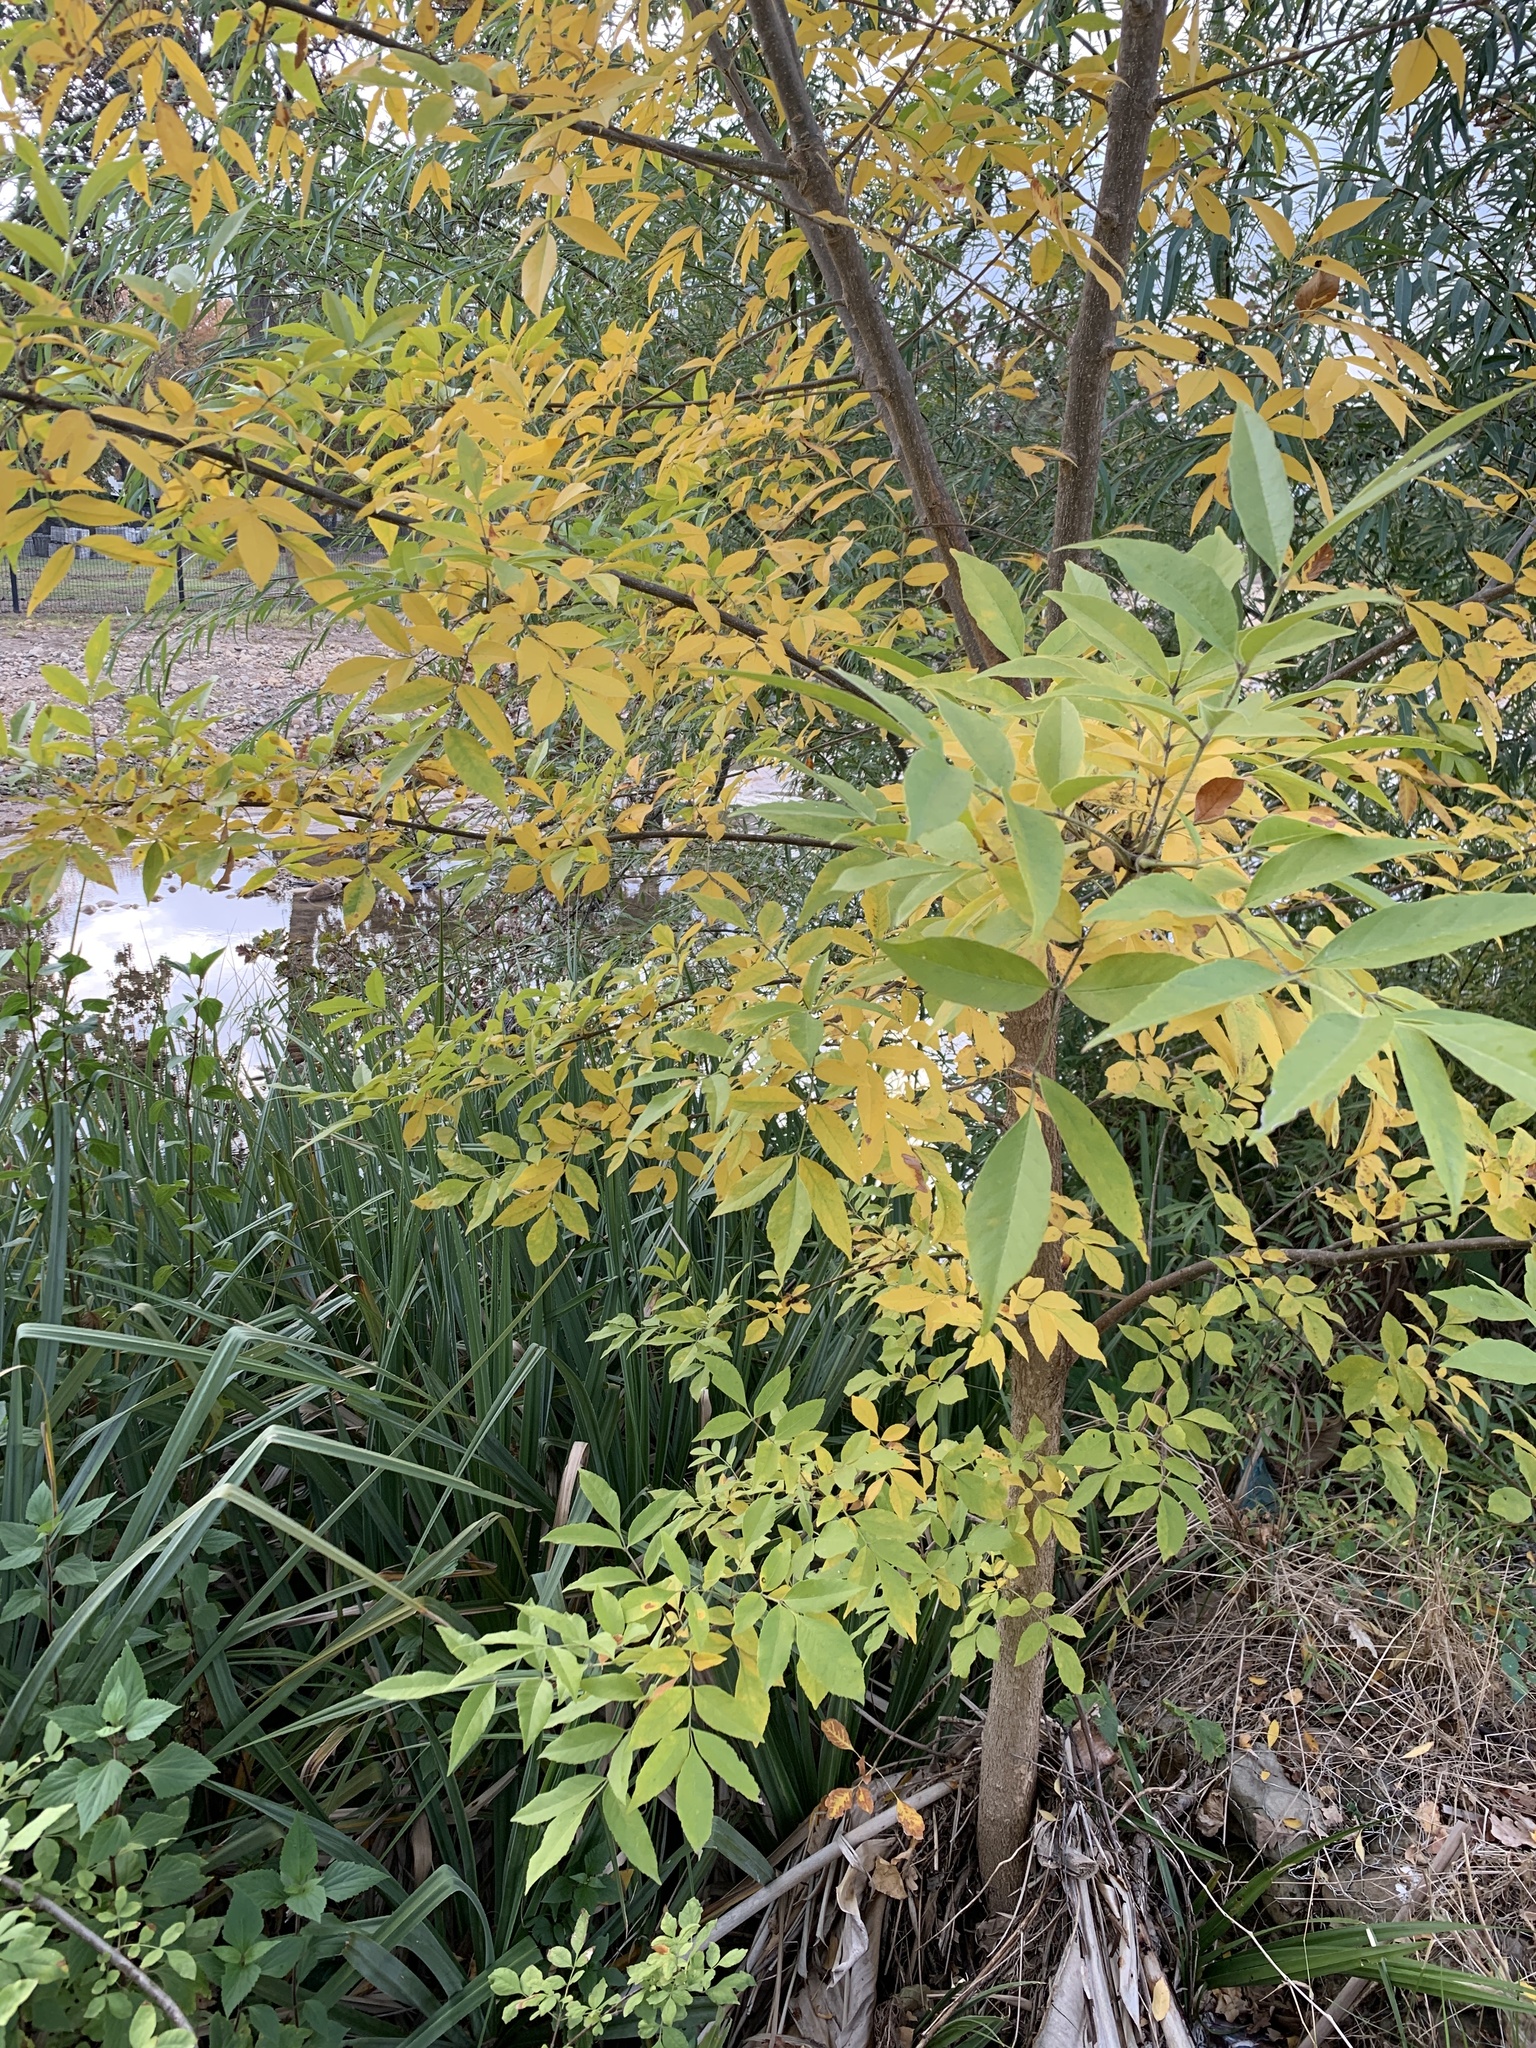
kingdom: Plantae
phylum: Tracheophyta
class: Magnoliopsida
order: Lamiales
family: Oleaceae
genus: Fraxinus
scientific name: Fraxinus pennsylvanica
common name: Green ash
